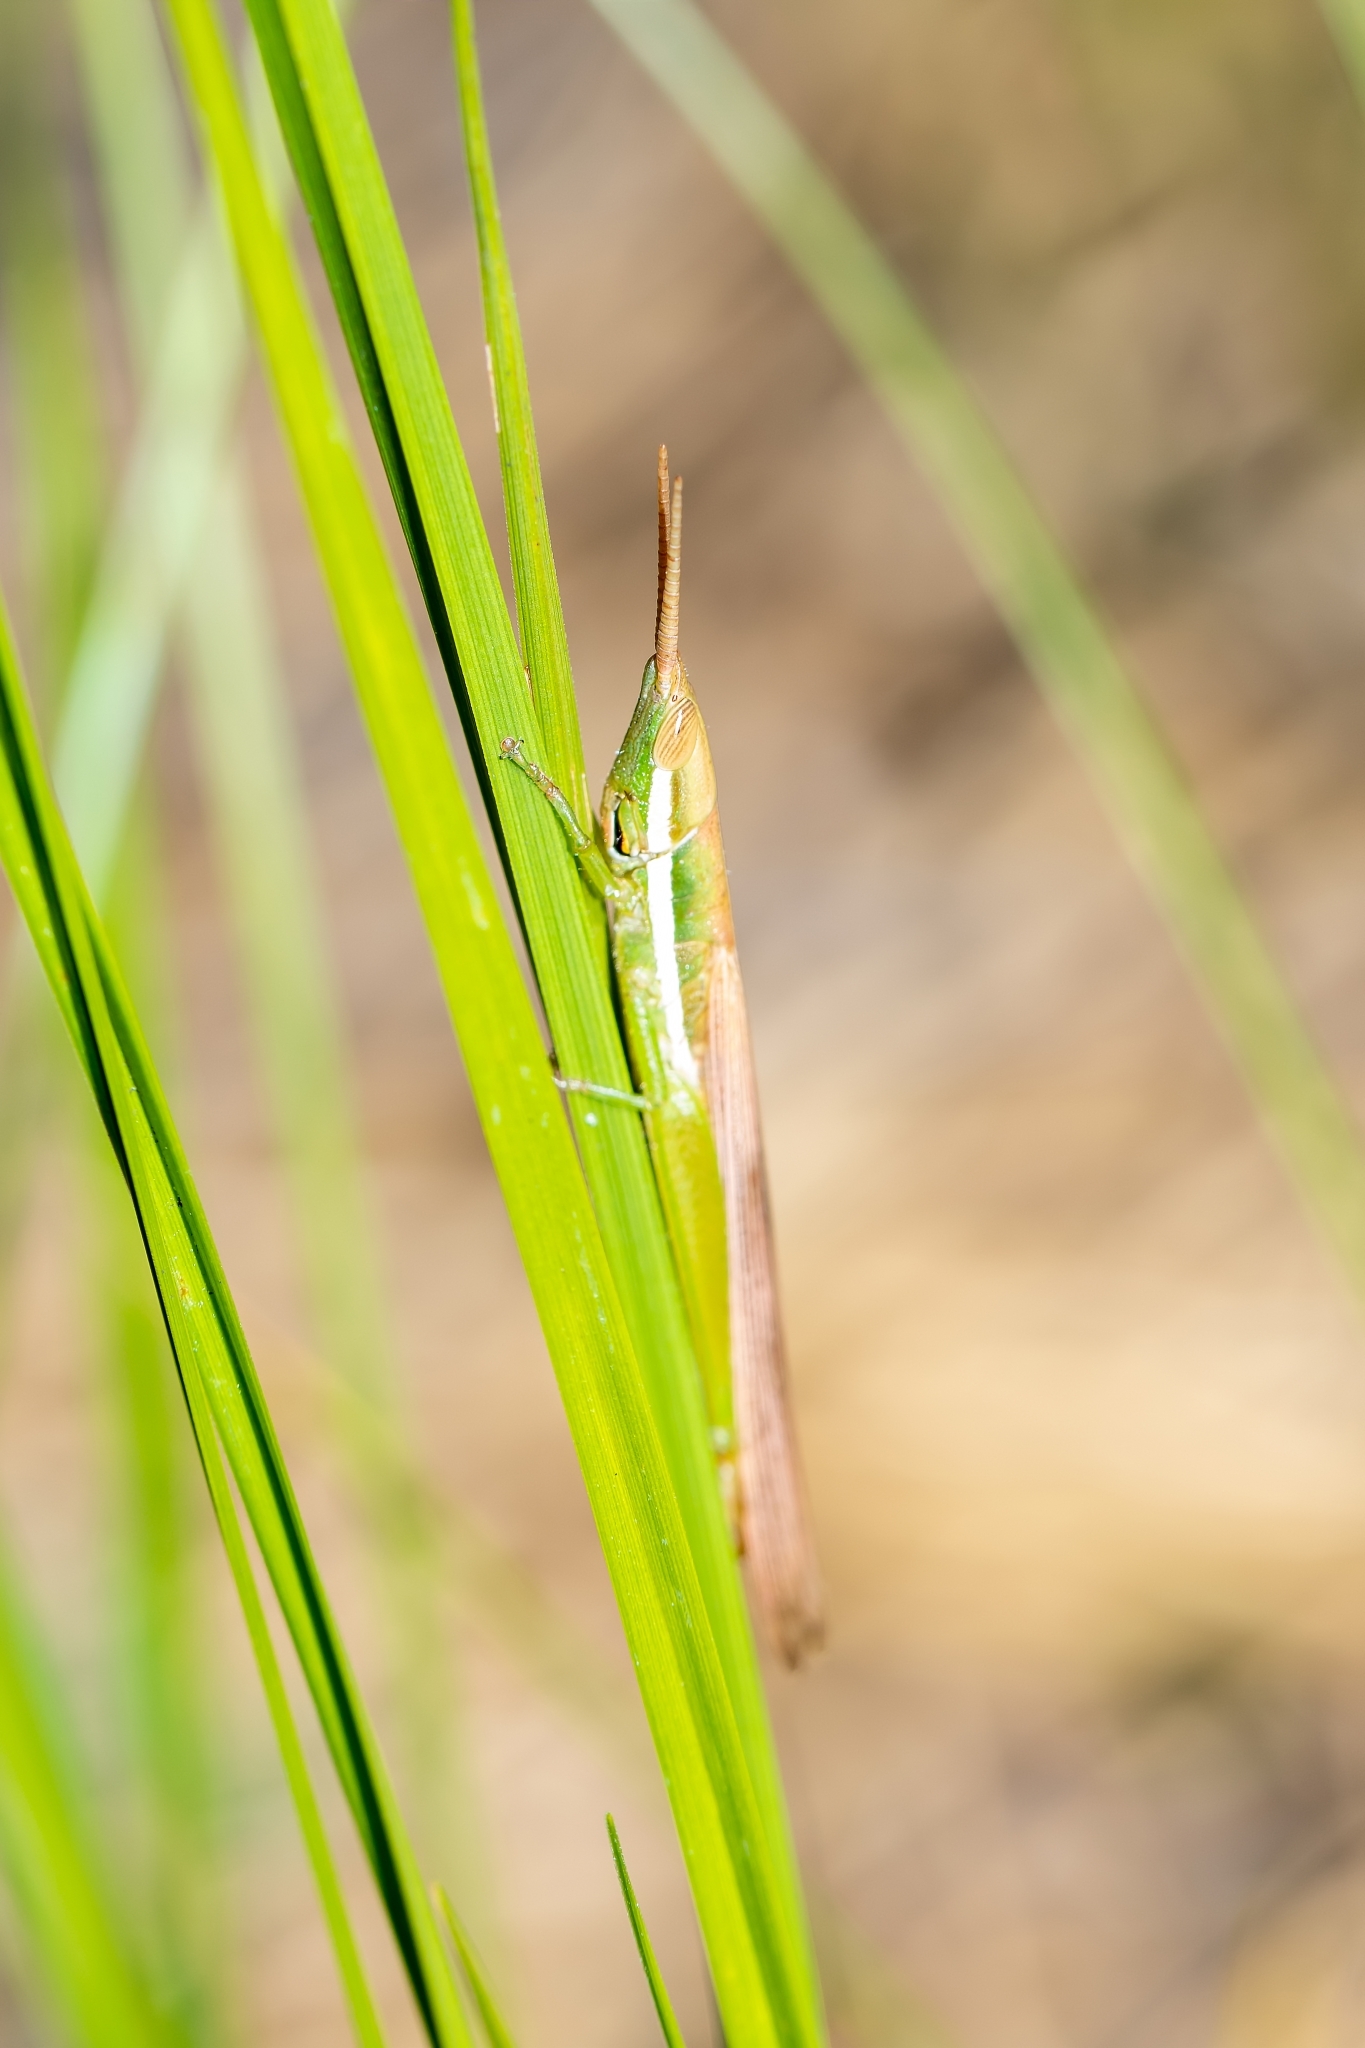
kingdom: Animalia
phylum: Arthropoda
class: Insecta
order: Orthoptera
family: Acrididae
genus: Leptysma
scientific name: Leptysma marginicollis
